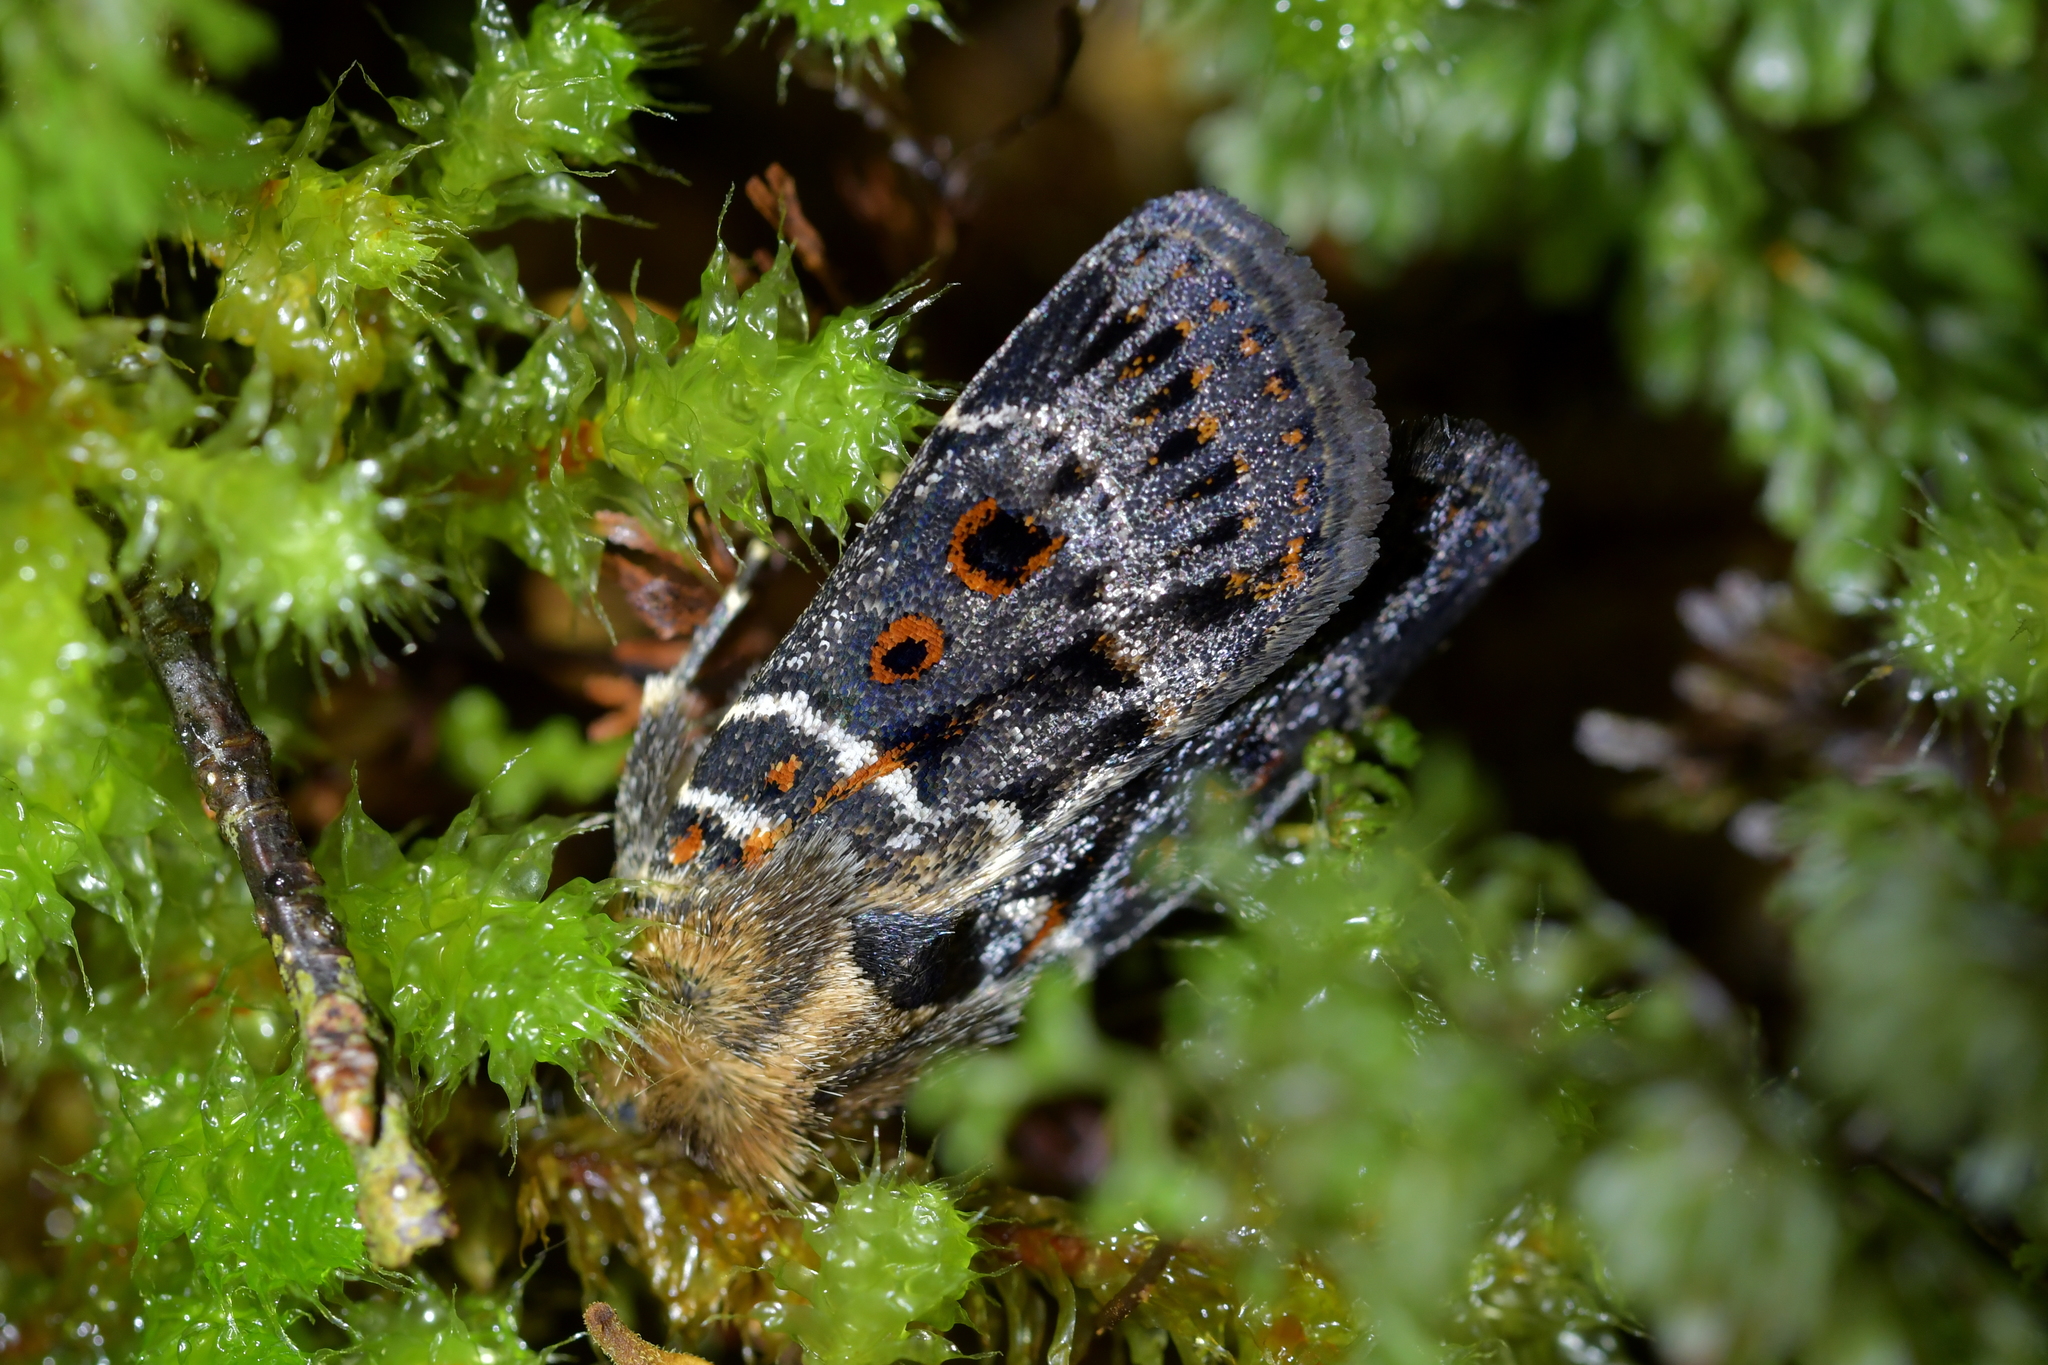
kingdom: Animalia
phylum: Arthropoda
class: Insecta
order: Lepidoptera
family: Noctuidae
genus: Proteuxoa
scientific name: Proteuxoa sanguinipuncta
